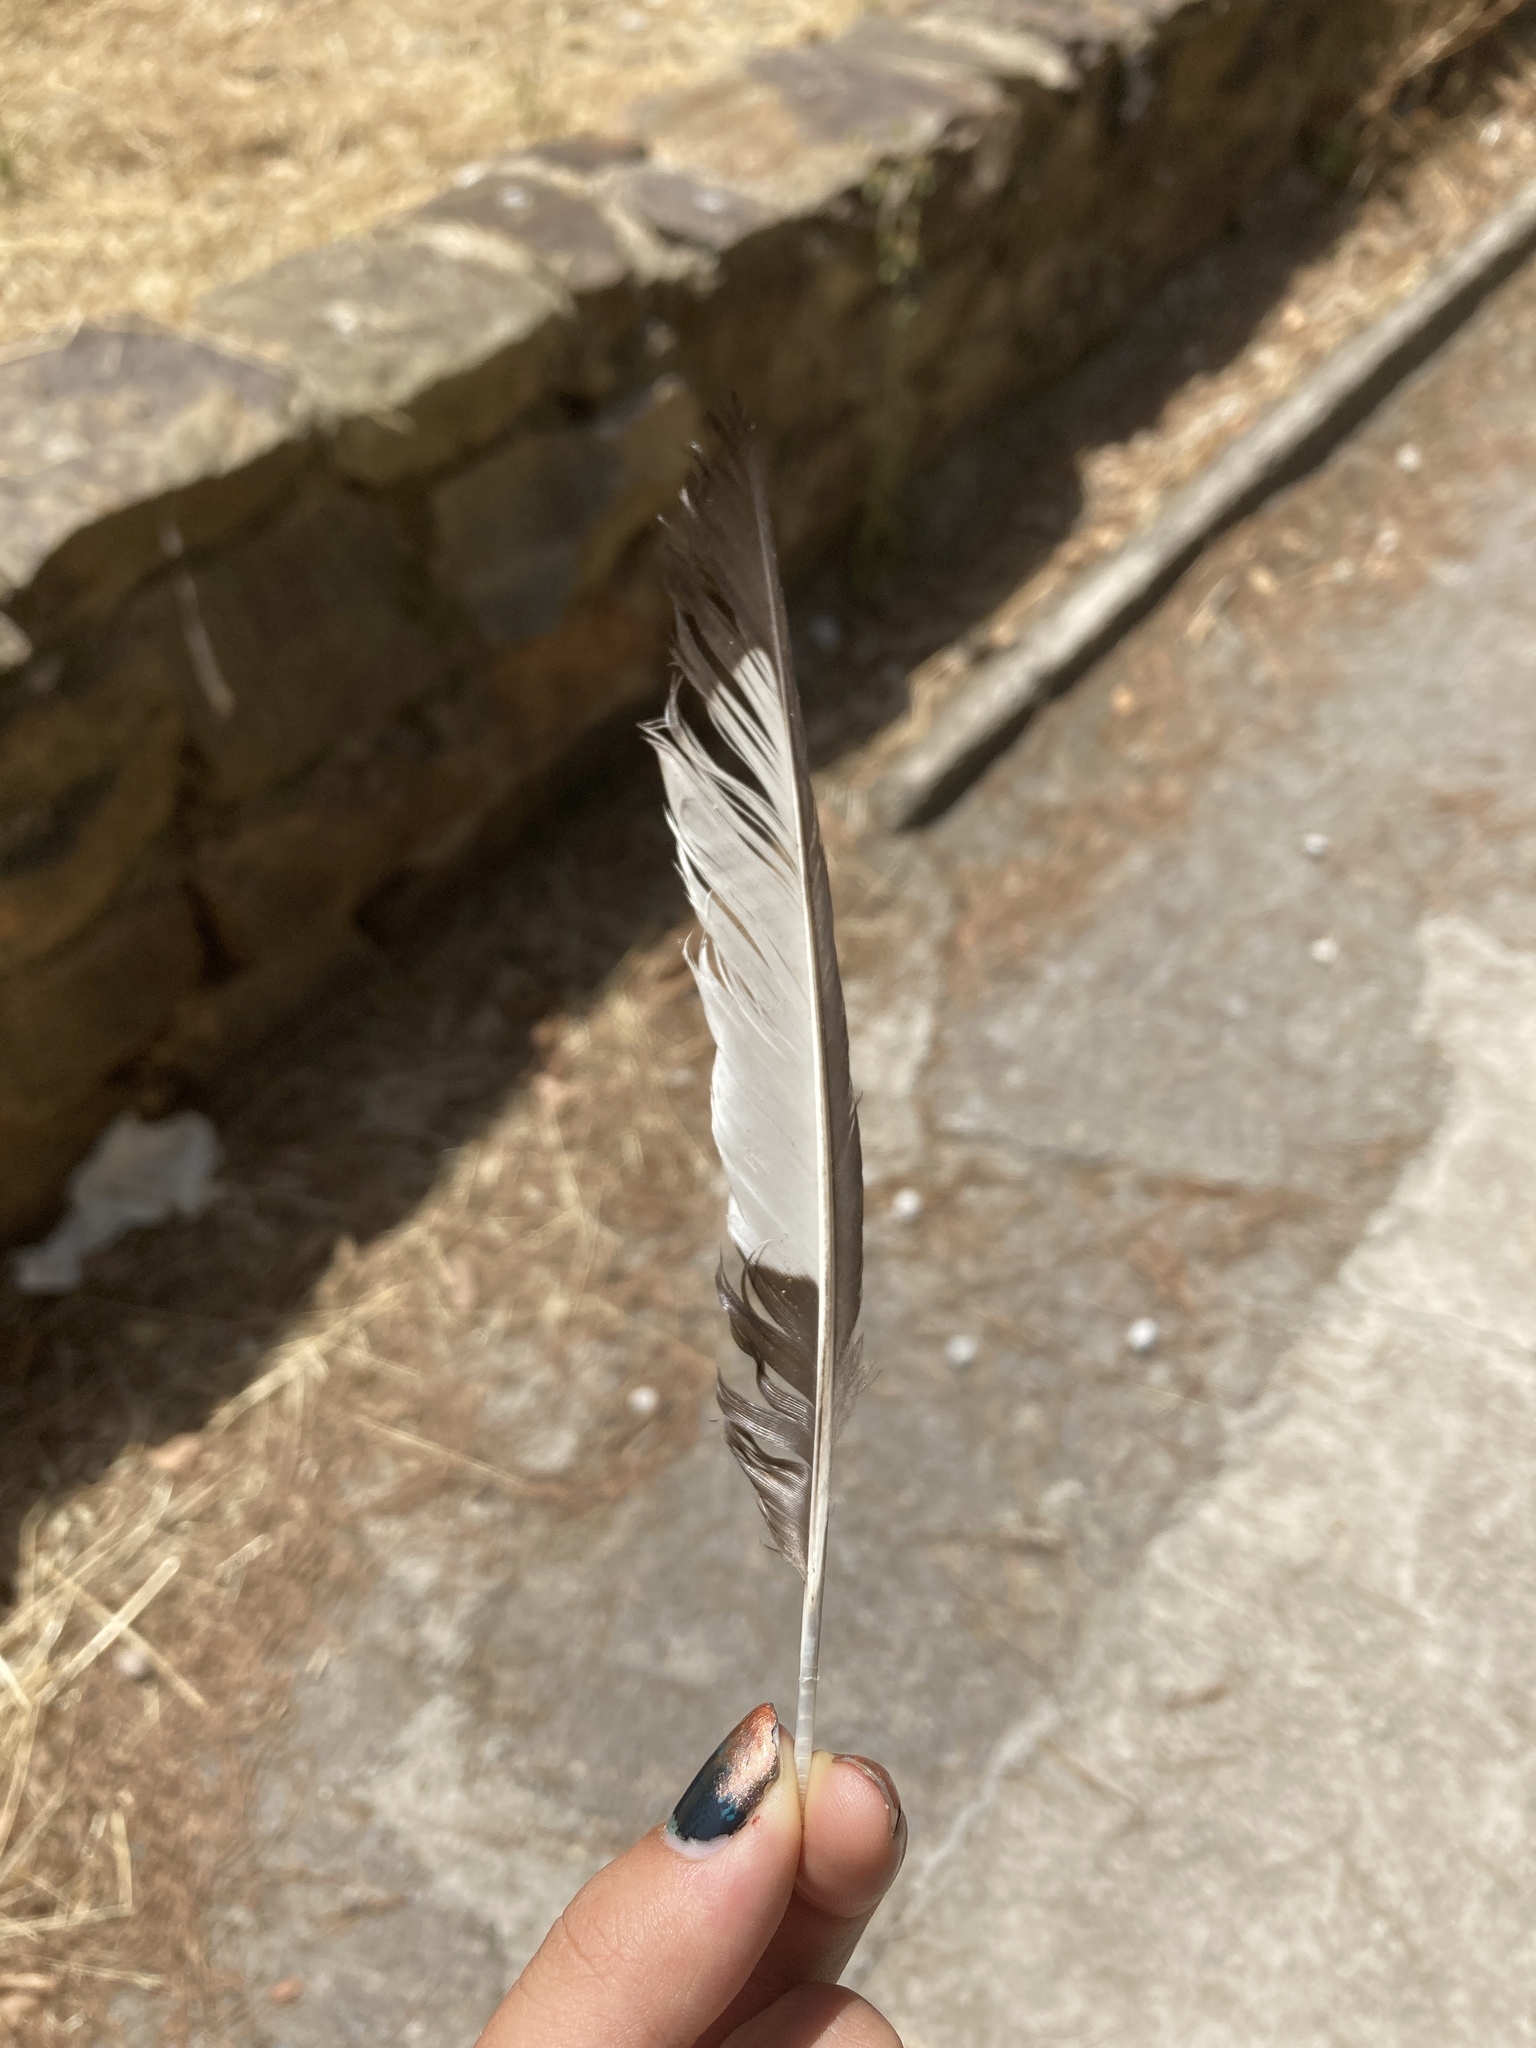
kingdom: Animalia
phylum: Chordata
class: Aves
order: Passeriformes
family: Corvidae
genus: Pica
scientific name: Pica pica
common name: Eurasian magpie
